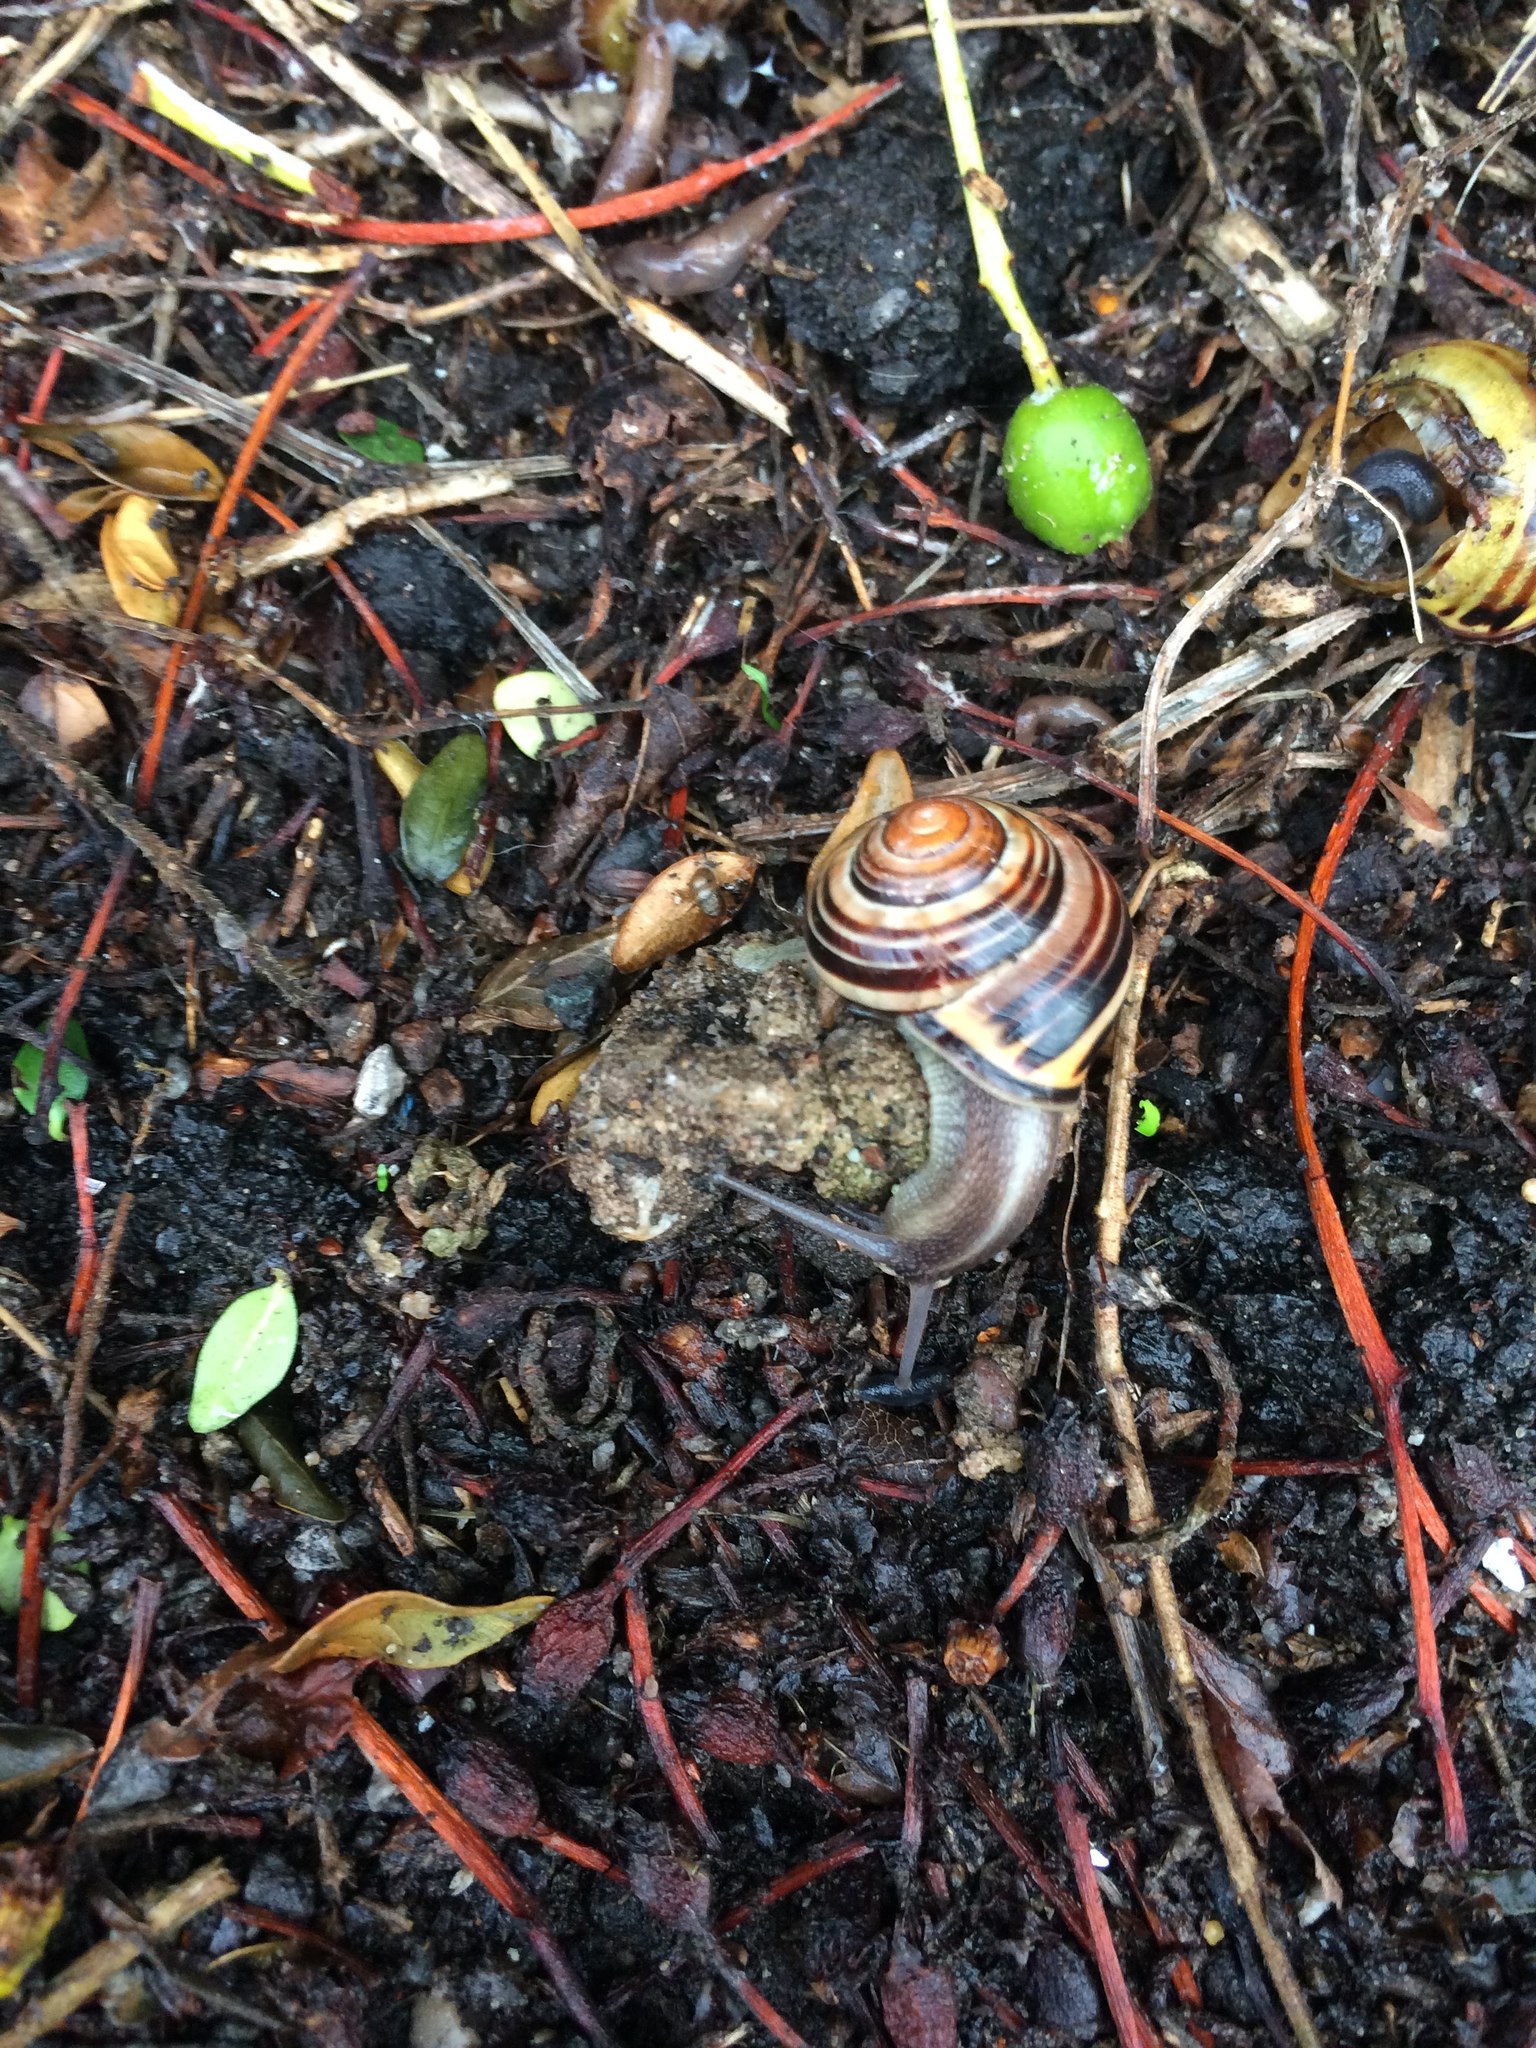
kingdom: Animalia
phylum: Mollusca
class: Gastropoda
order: Stylommatophora
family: Helicidae
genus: Cepaea
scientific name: Cepaea nemoralis
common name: Grovesnail
